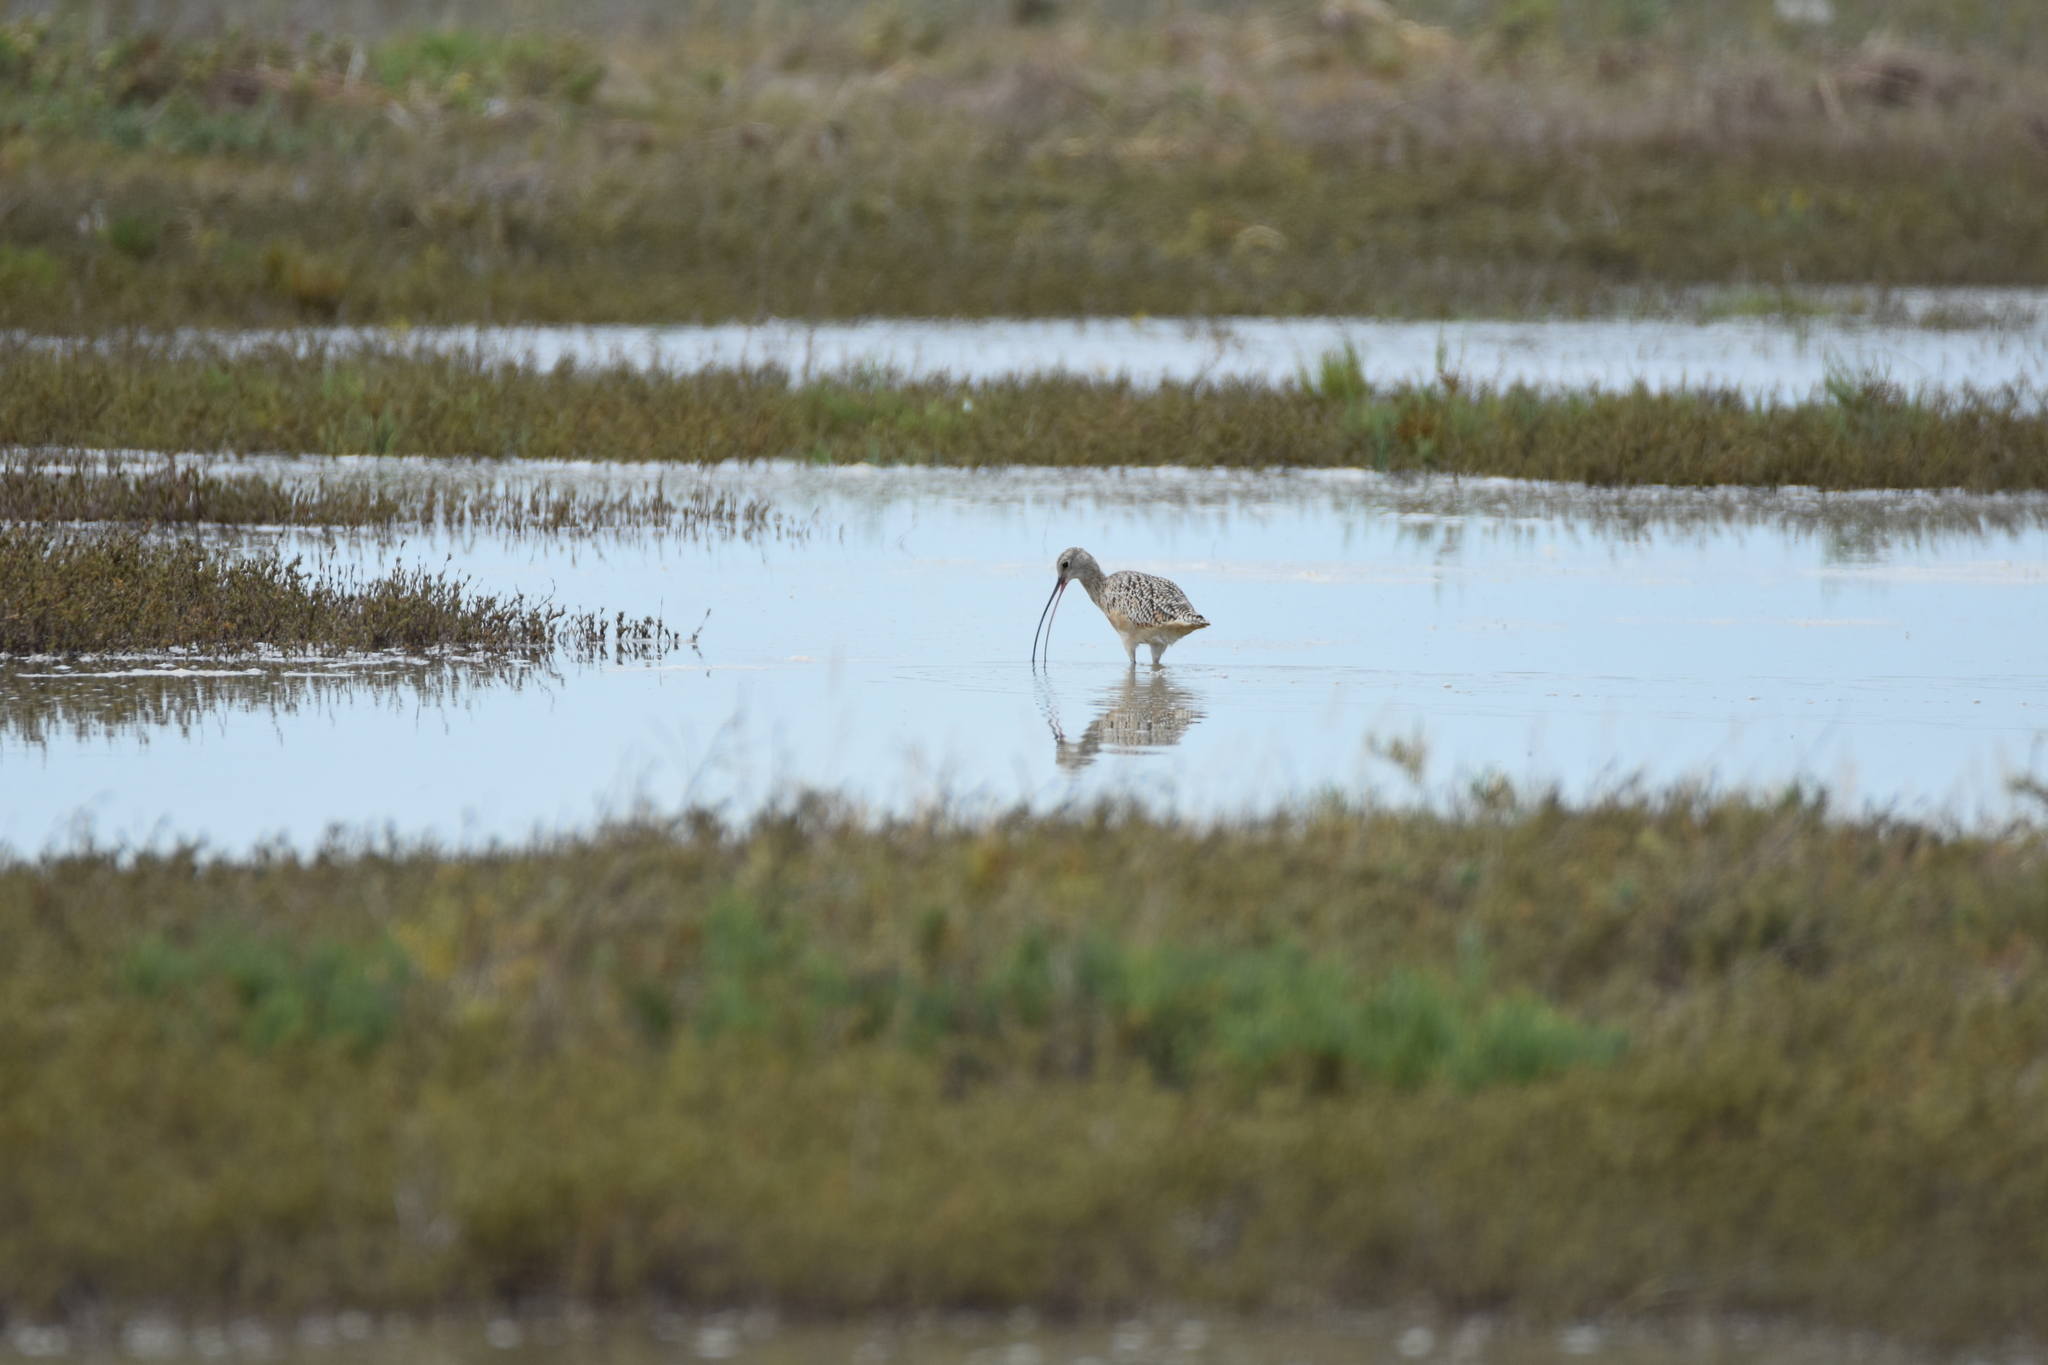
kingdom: Animalia
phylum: Chordata
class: Aves
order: Charadriiformes
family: Scolopacidae
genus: Numenius
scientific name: Numenius americanus
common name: Long-billed curlew
